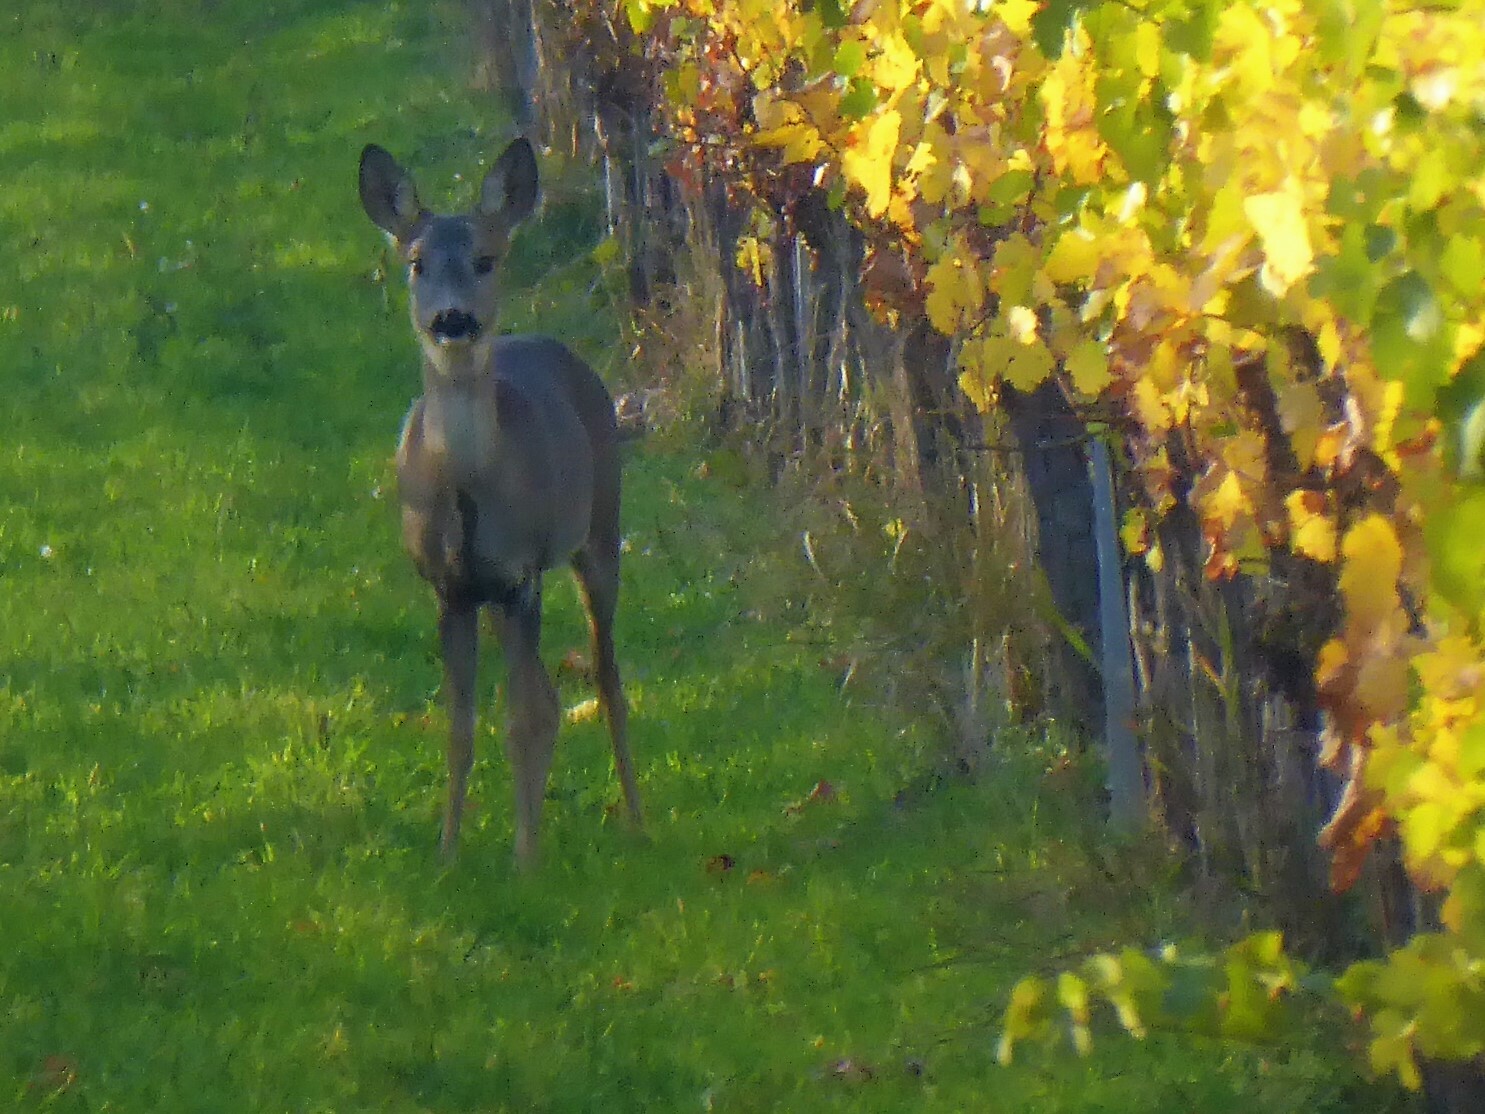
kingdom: Animalia
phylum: Chordata
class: Mammalia
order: Artiodactyla
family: Cervidae
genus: Capreolus
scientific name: Capreolus capreolus
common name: Western roe deer
